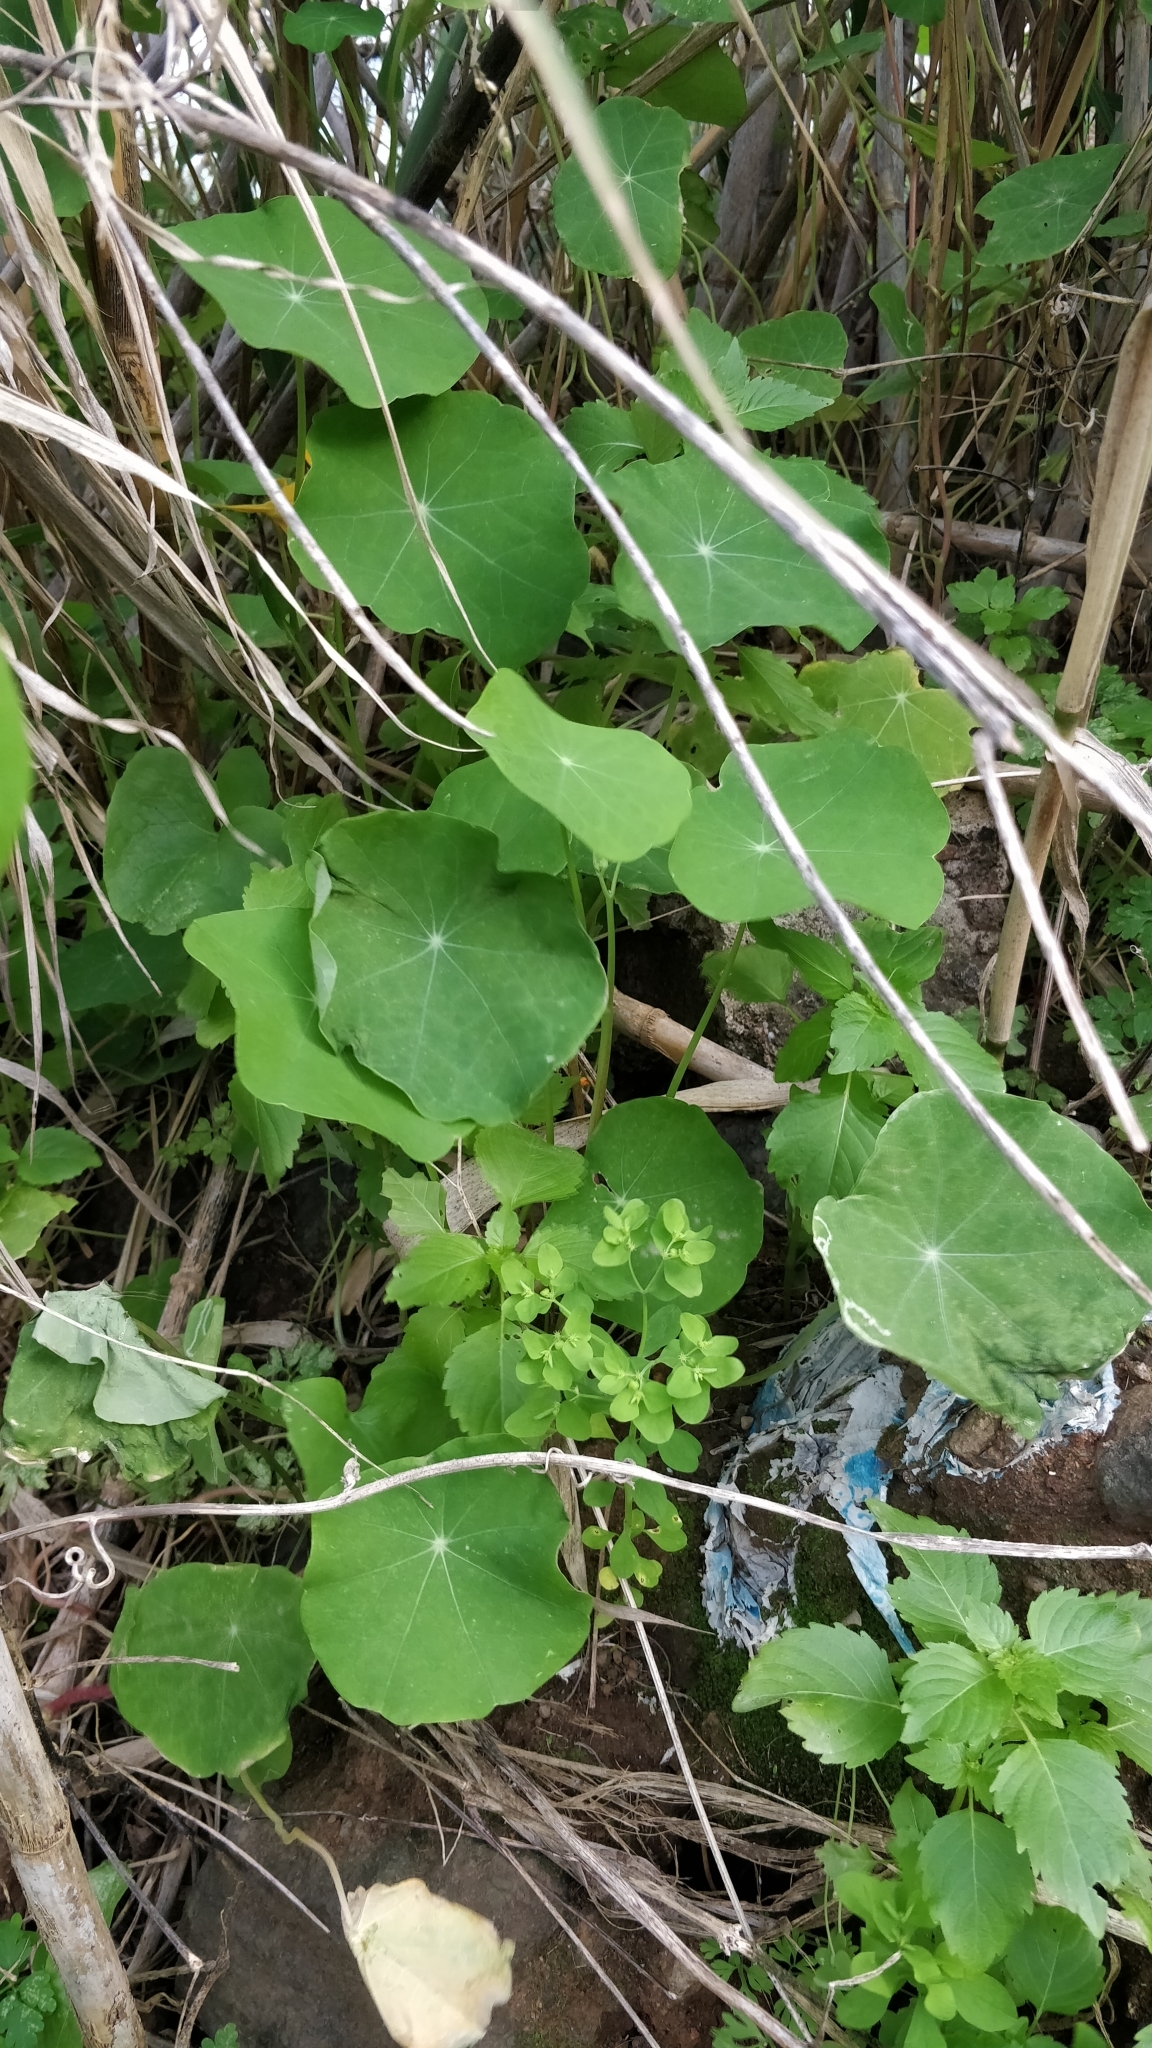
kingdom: Plantae
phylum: Tracheophyta
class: Magnoliopsida
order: Brassicales
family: Tropaeolaceae
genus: Tropaeolum
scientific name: Tropaeolum majus
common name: Nasturtium
